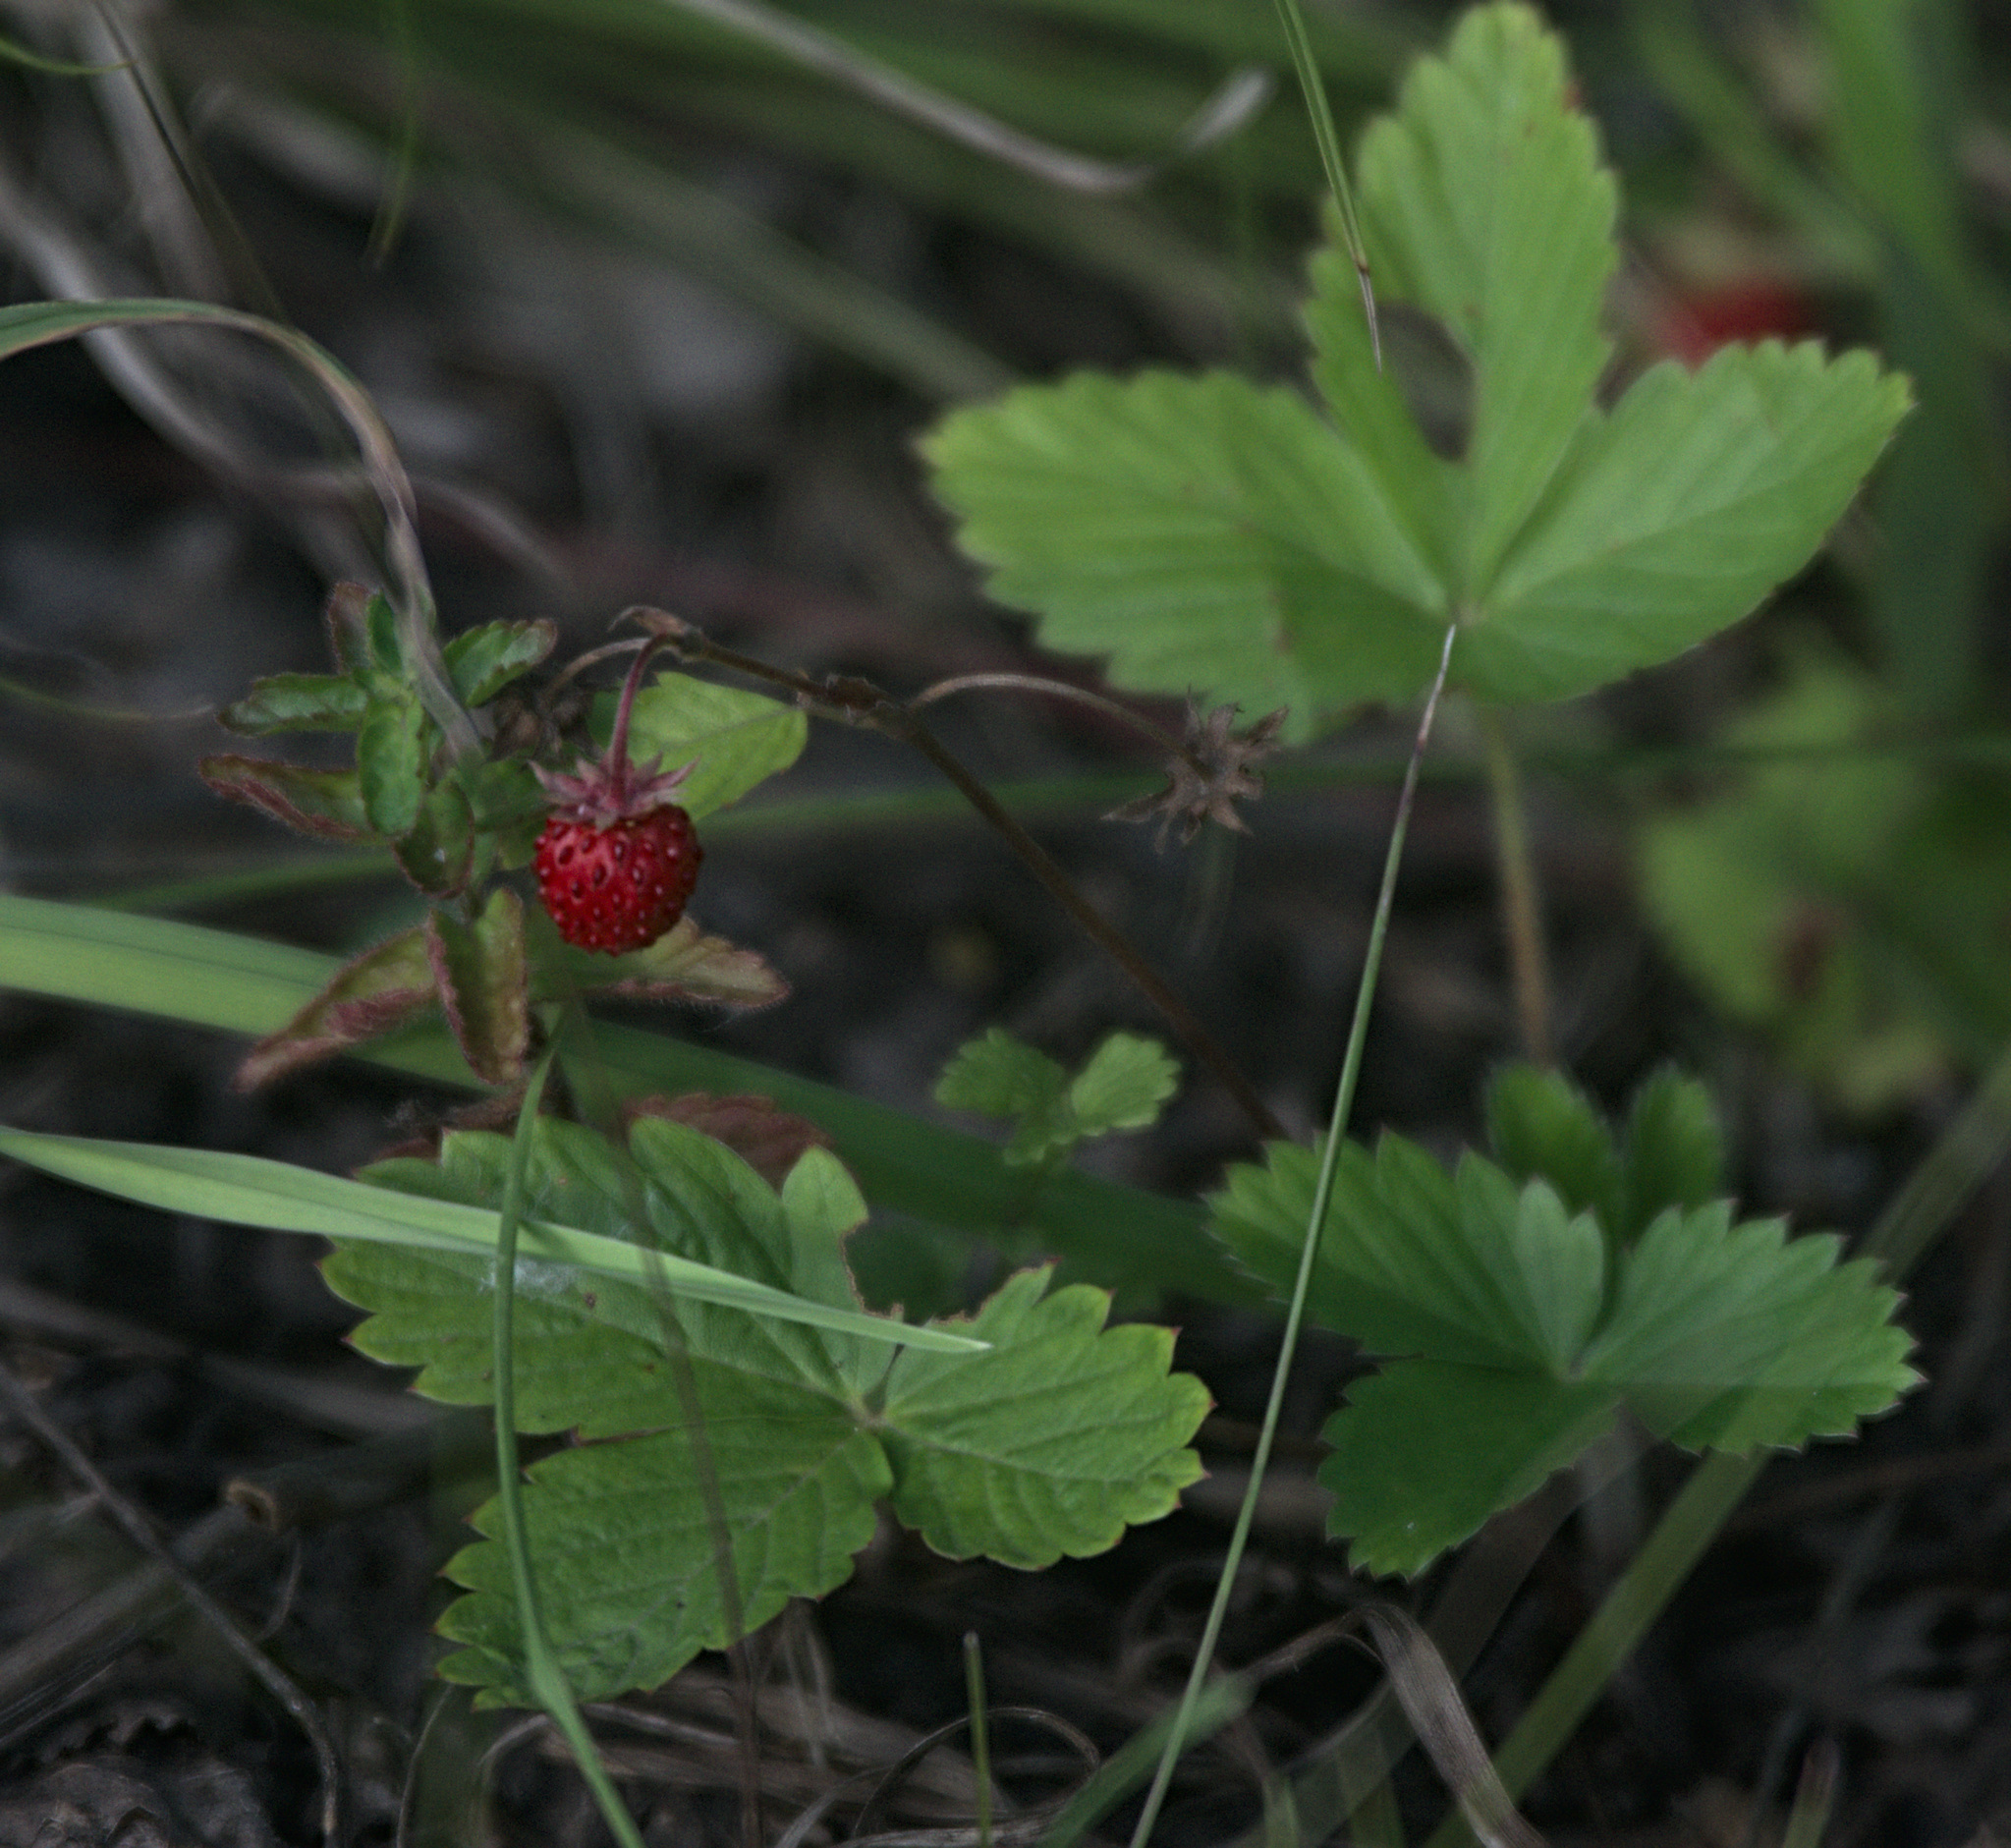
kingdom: Plantae
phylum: Tracheophyta
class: Magnoliopsida
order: Rosales
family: Rosaceae
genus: Fragaria
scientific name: Fragaria vesca
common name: Wild strawberry
